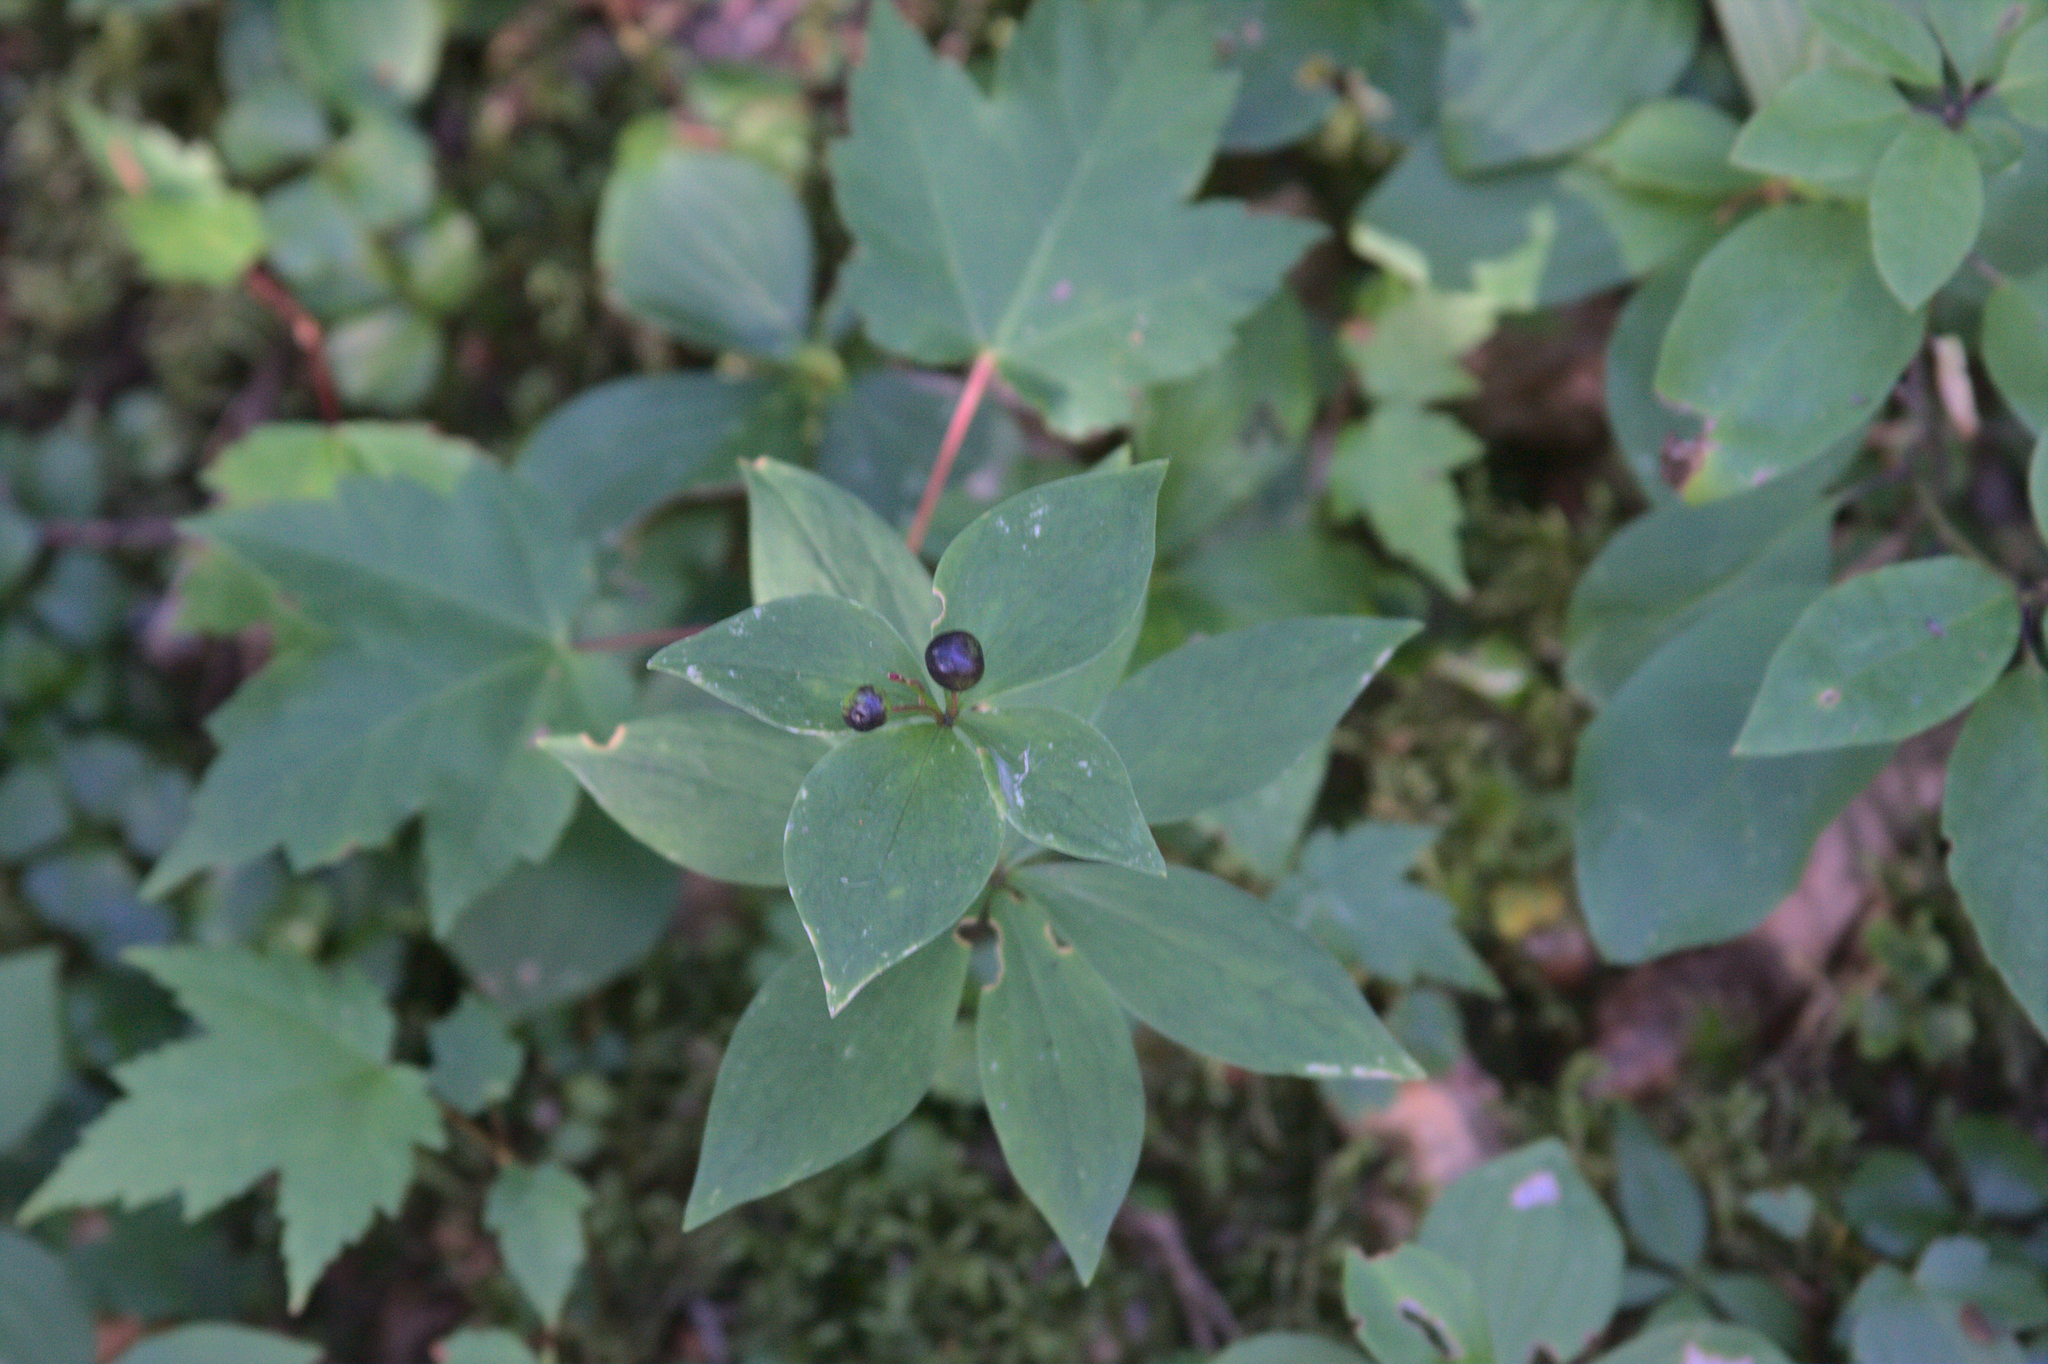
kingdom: Plantae
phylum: Tracheophyta
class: Liliopsida
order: Liliales
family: Liliaceae
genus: Medeola
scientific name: Medeola virginiana
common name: Indian cucumber-root
